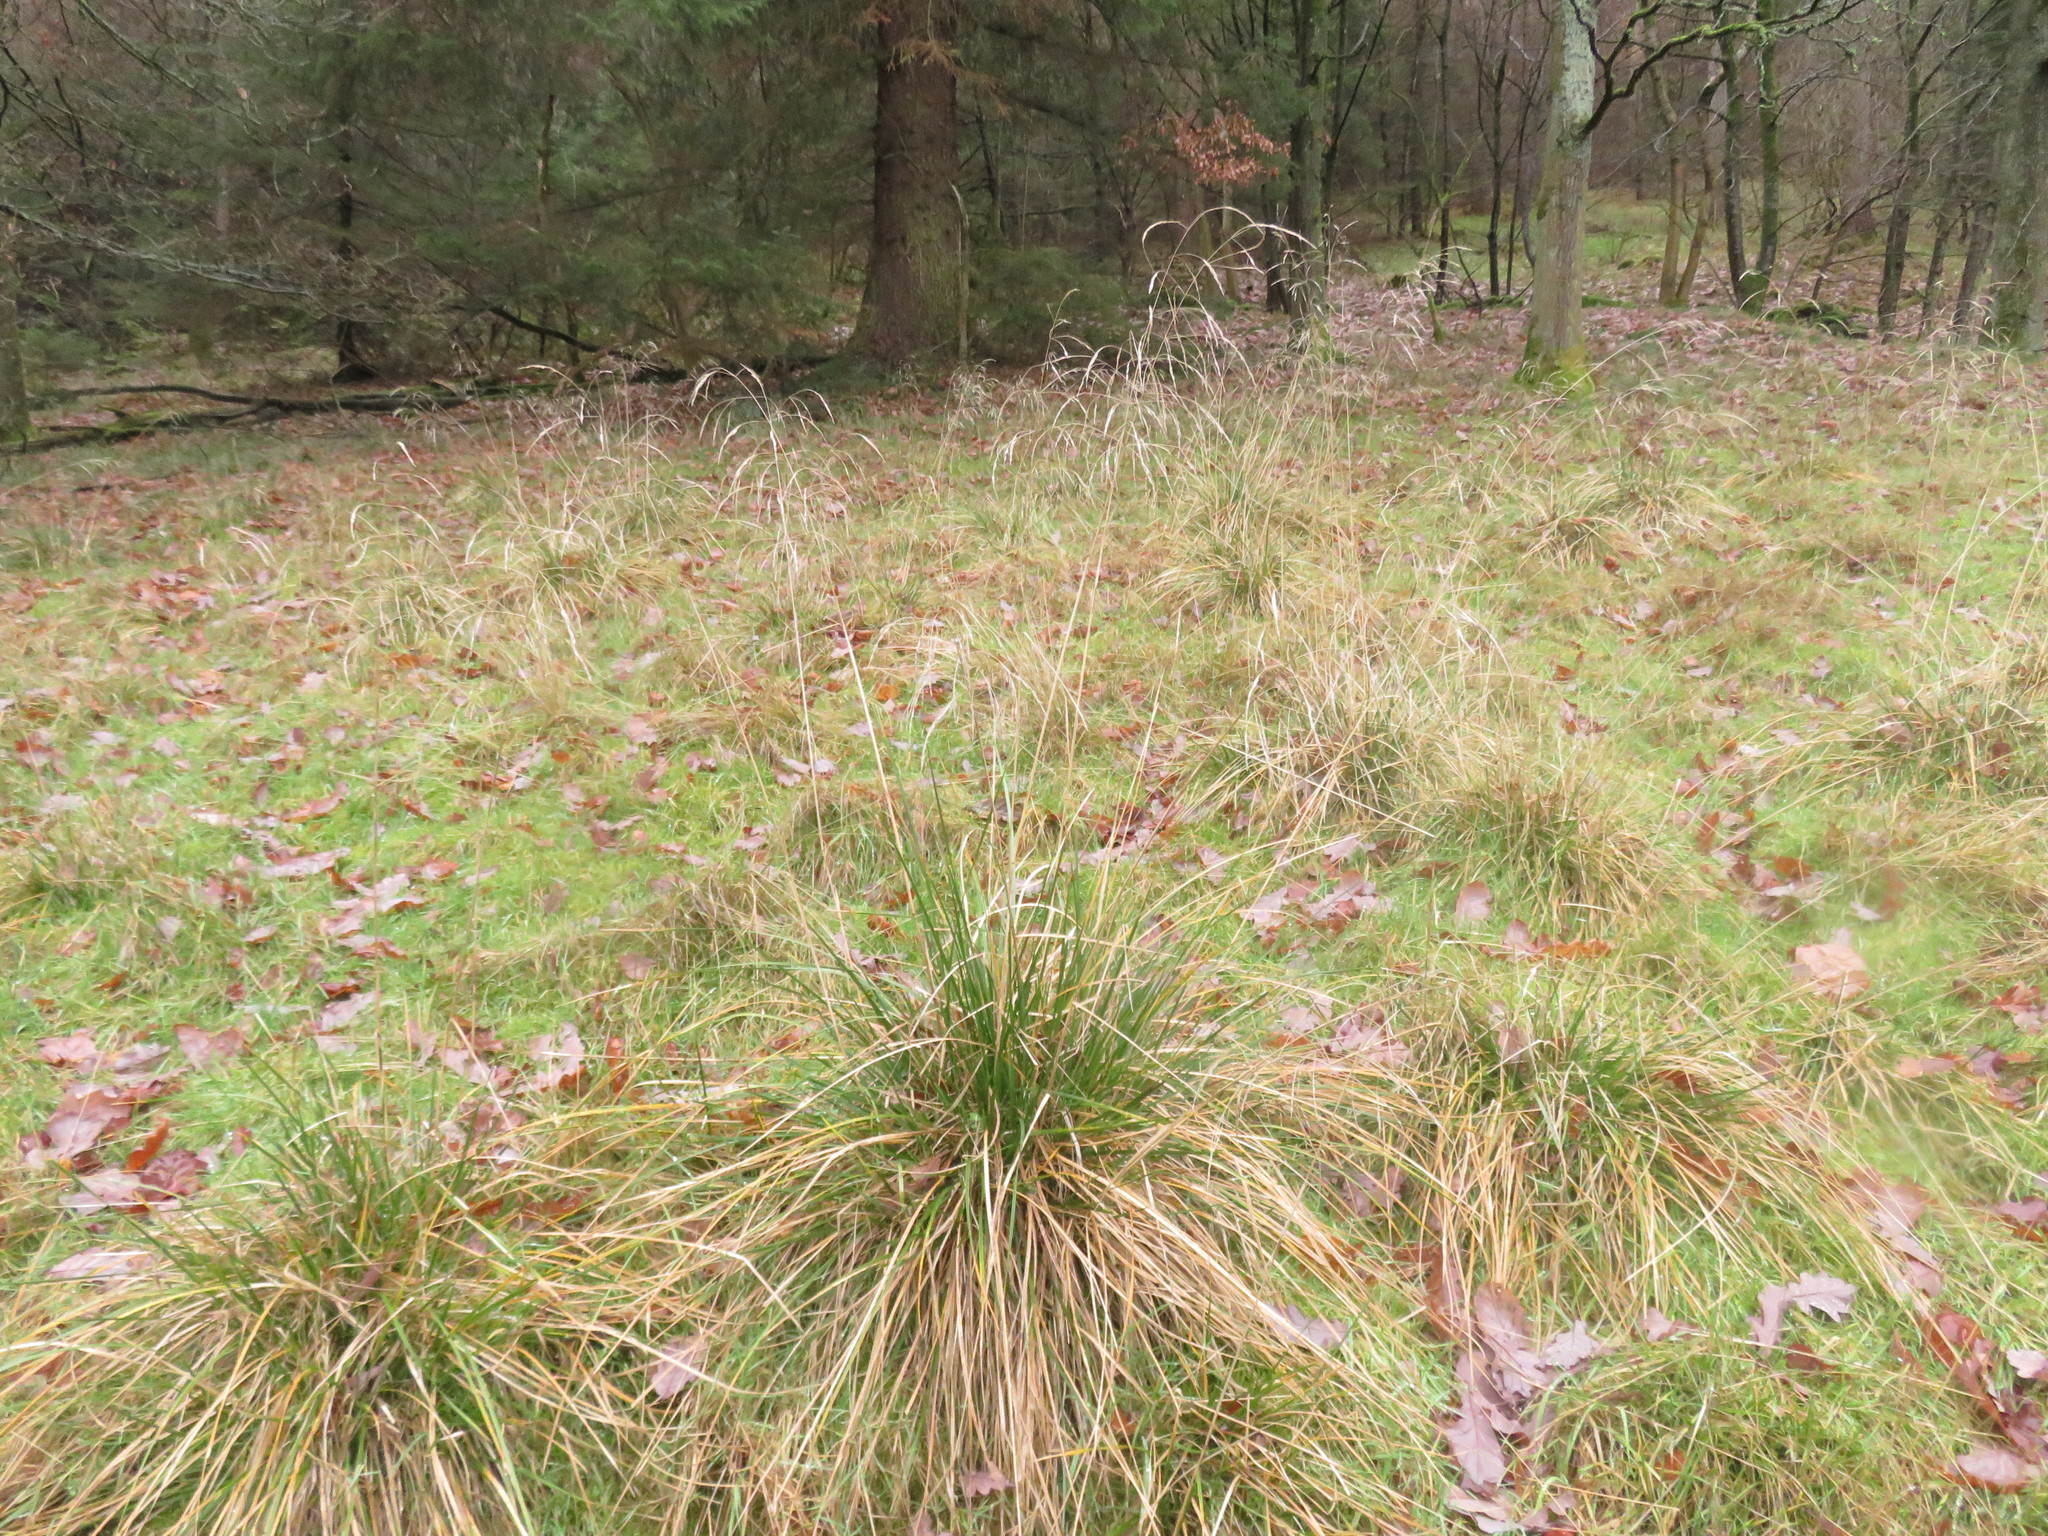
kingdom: Plantae
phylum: Tracheophyta
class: Liliopsida
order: Poales
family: Poaceae
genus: Deschampsia
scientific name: Deschampsia cespitosa
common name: Tufted hair-grass
